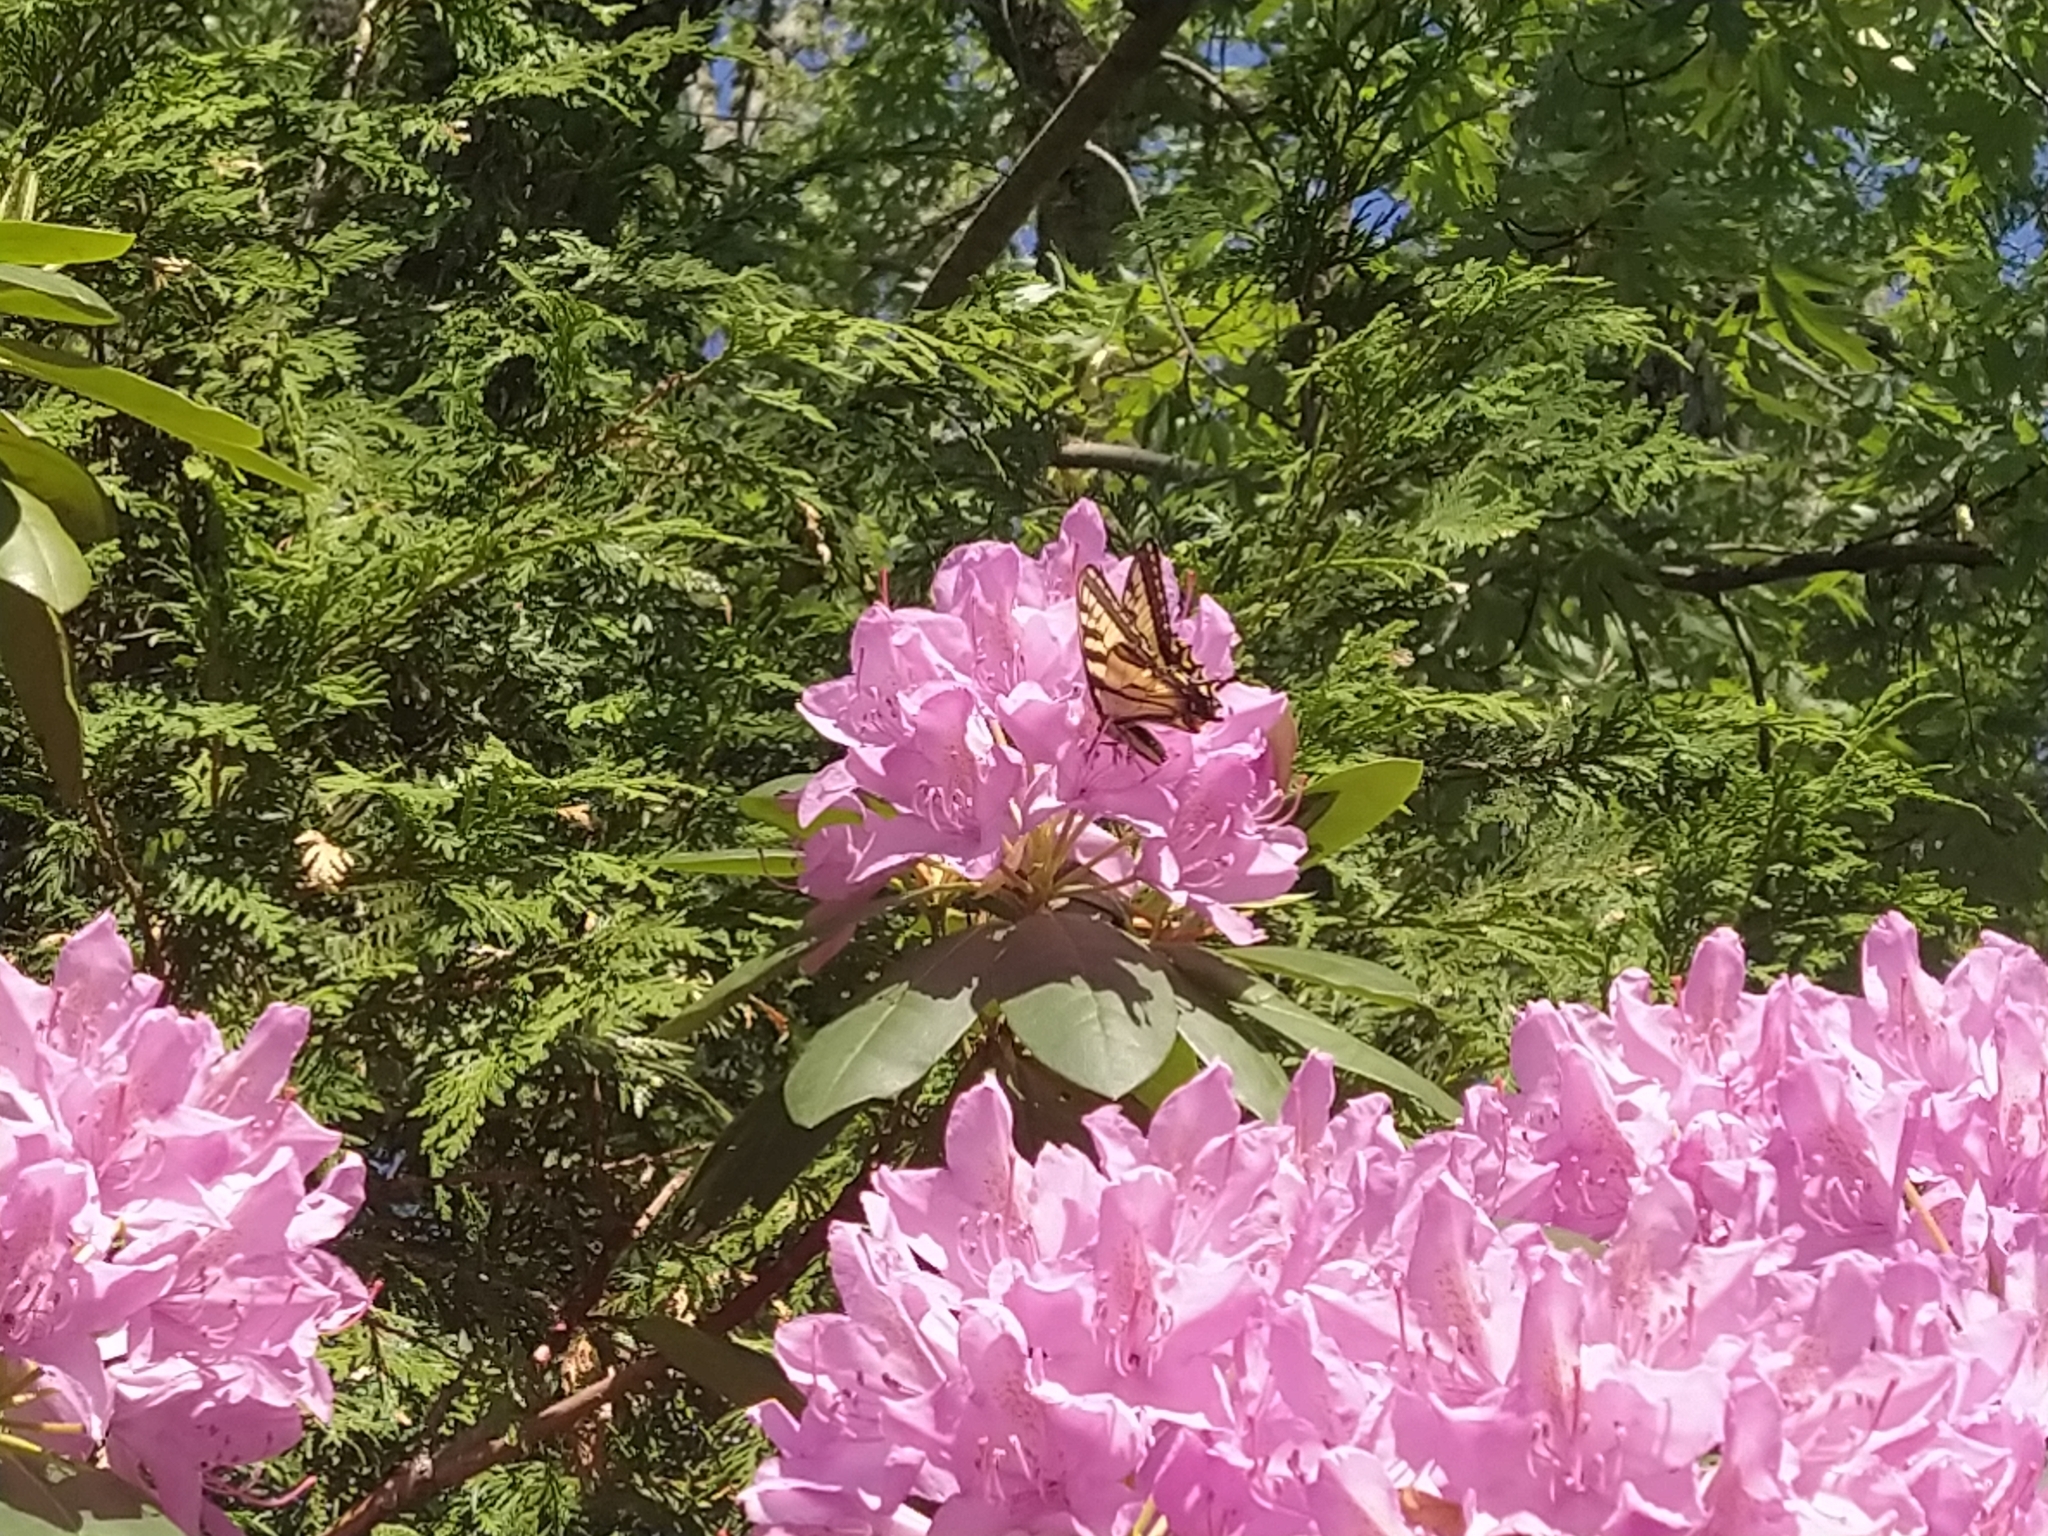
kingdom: Animalia
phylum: Arthropoda
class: Insecta
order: Lepidoptera
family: Papilionidae
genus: Papilio
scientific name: Papilio canadensis
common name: Canadian tiger swallowtail
